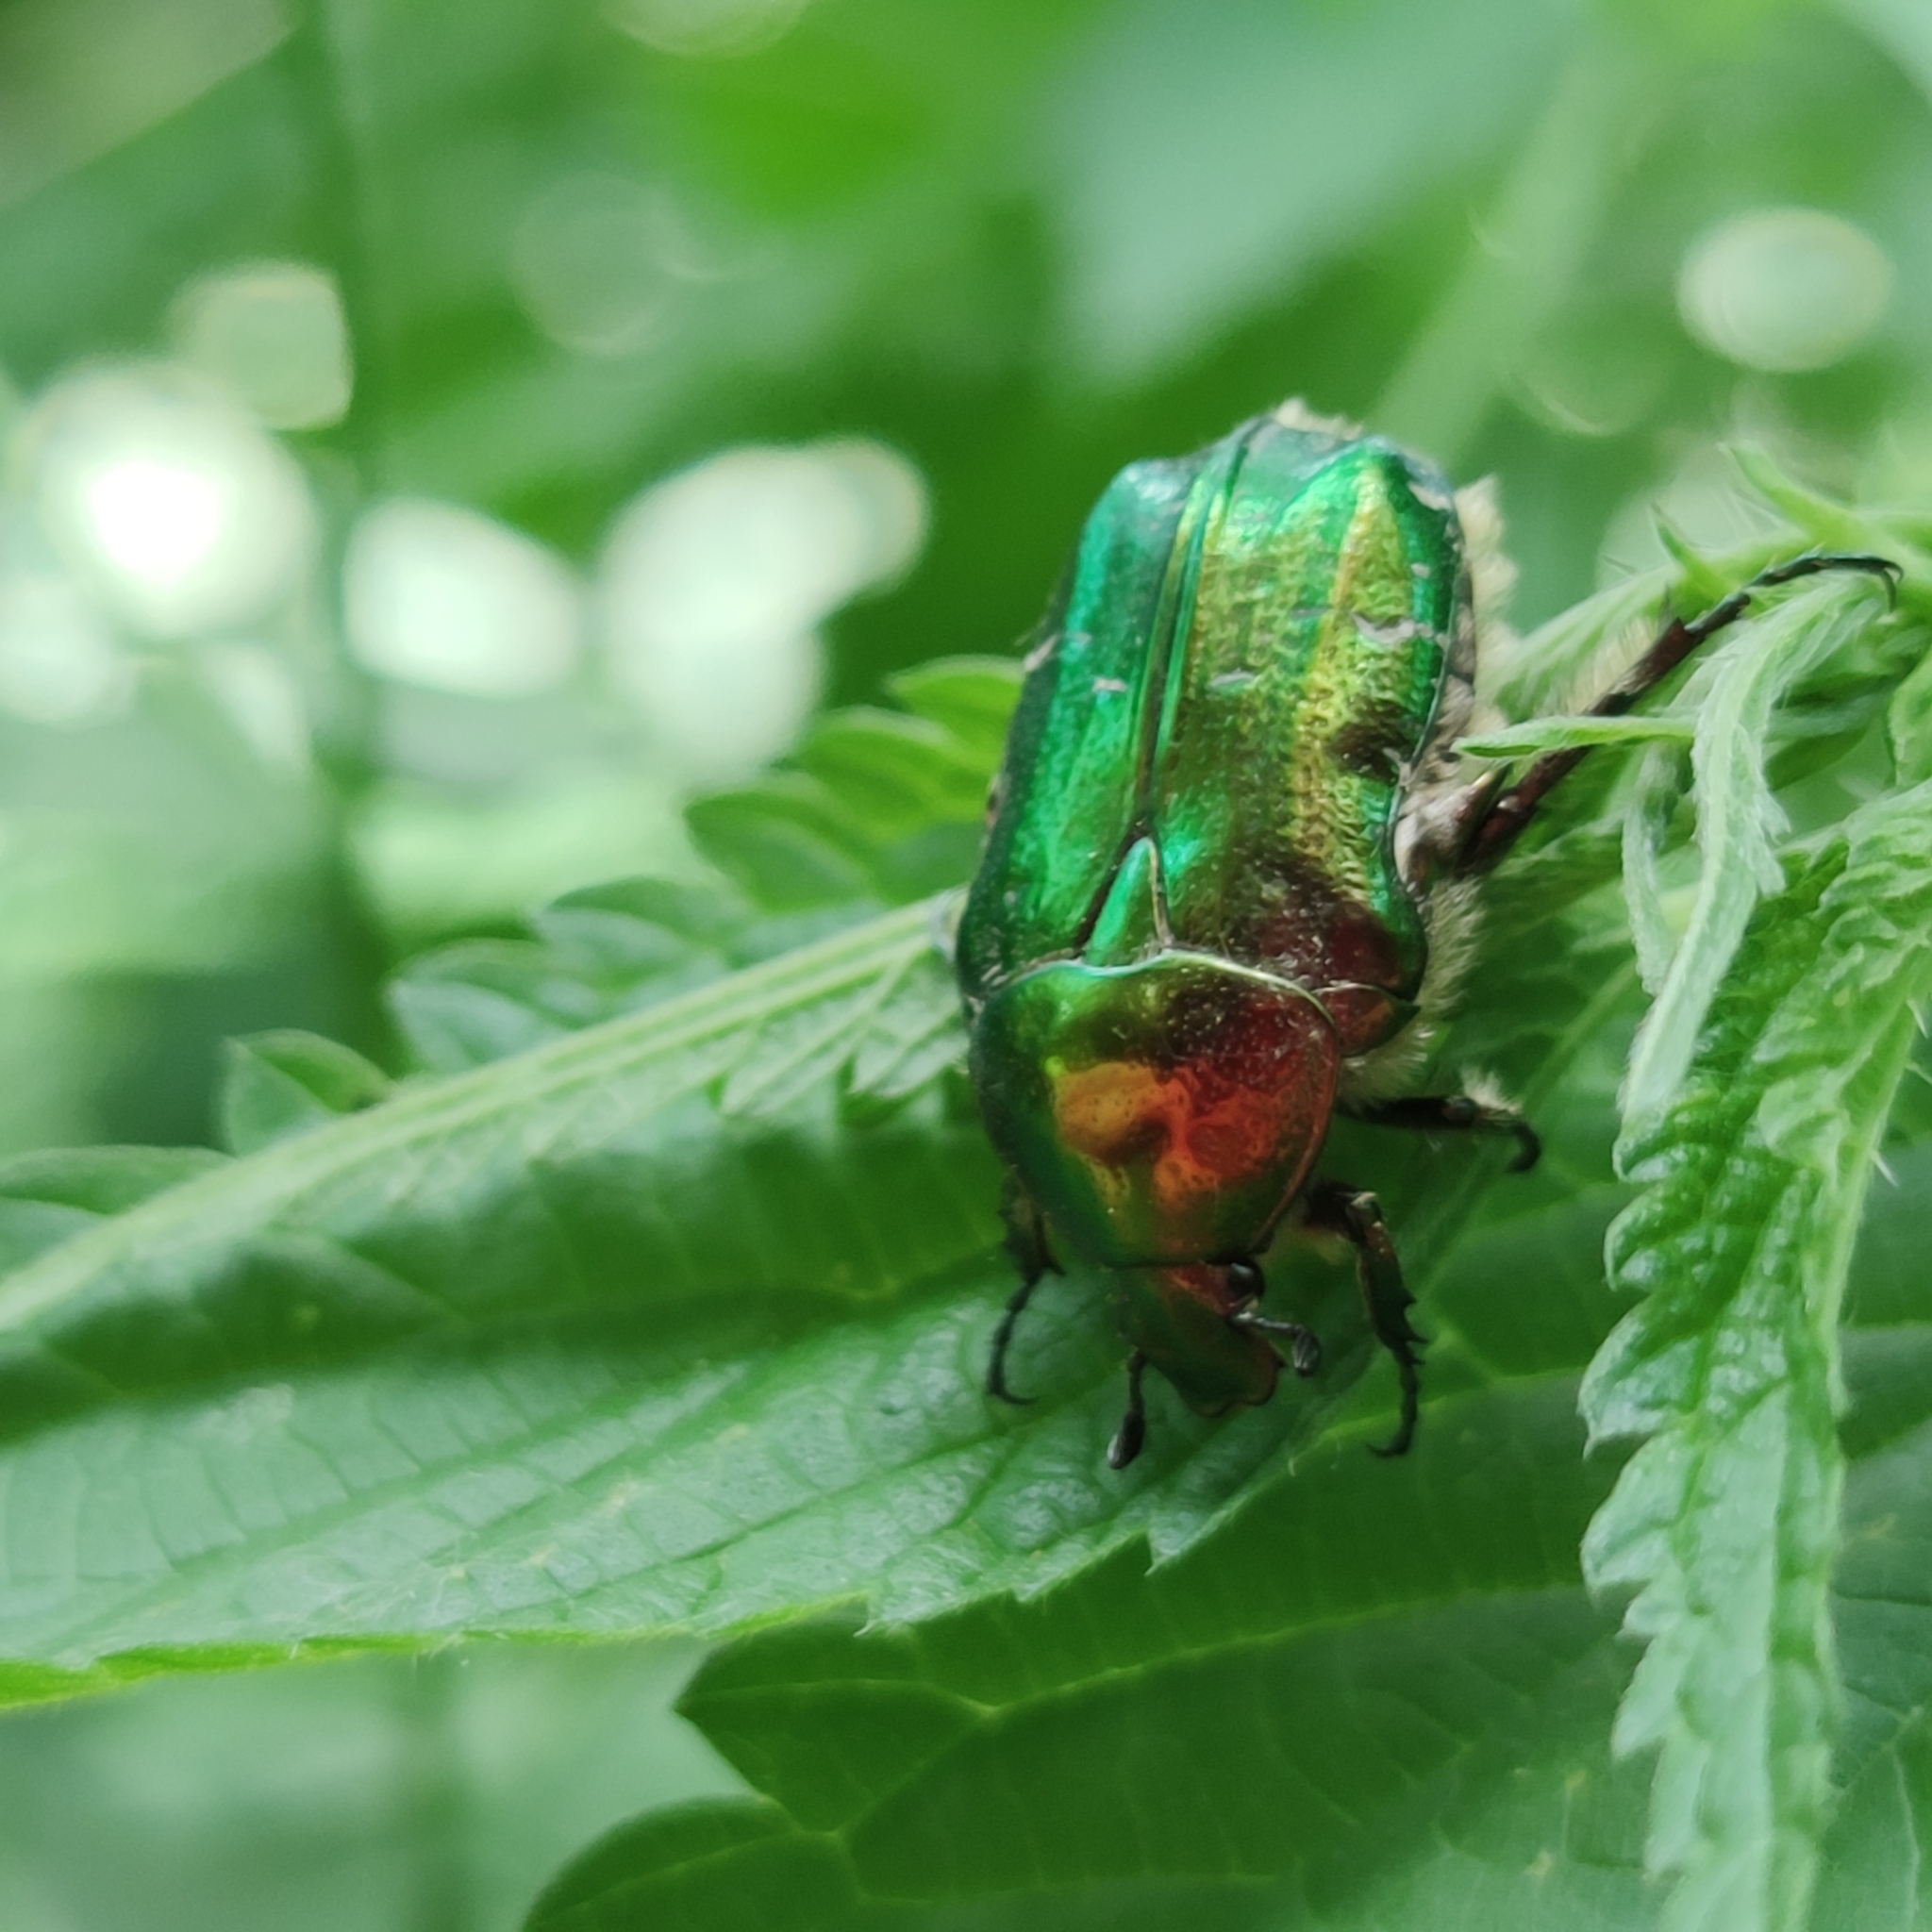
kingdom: Animalia
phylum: Arthropoda
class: Insecta
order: Coleoptera
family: Scarabaeidae
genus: Cetonia
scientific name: Cetonia aurata
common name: Rose chafer
